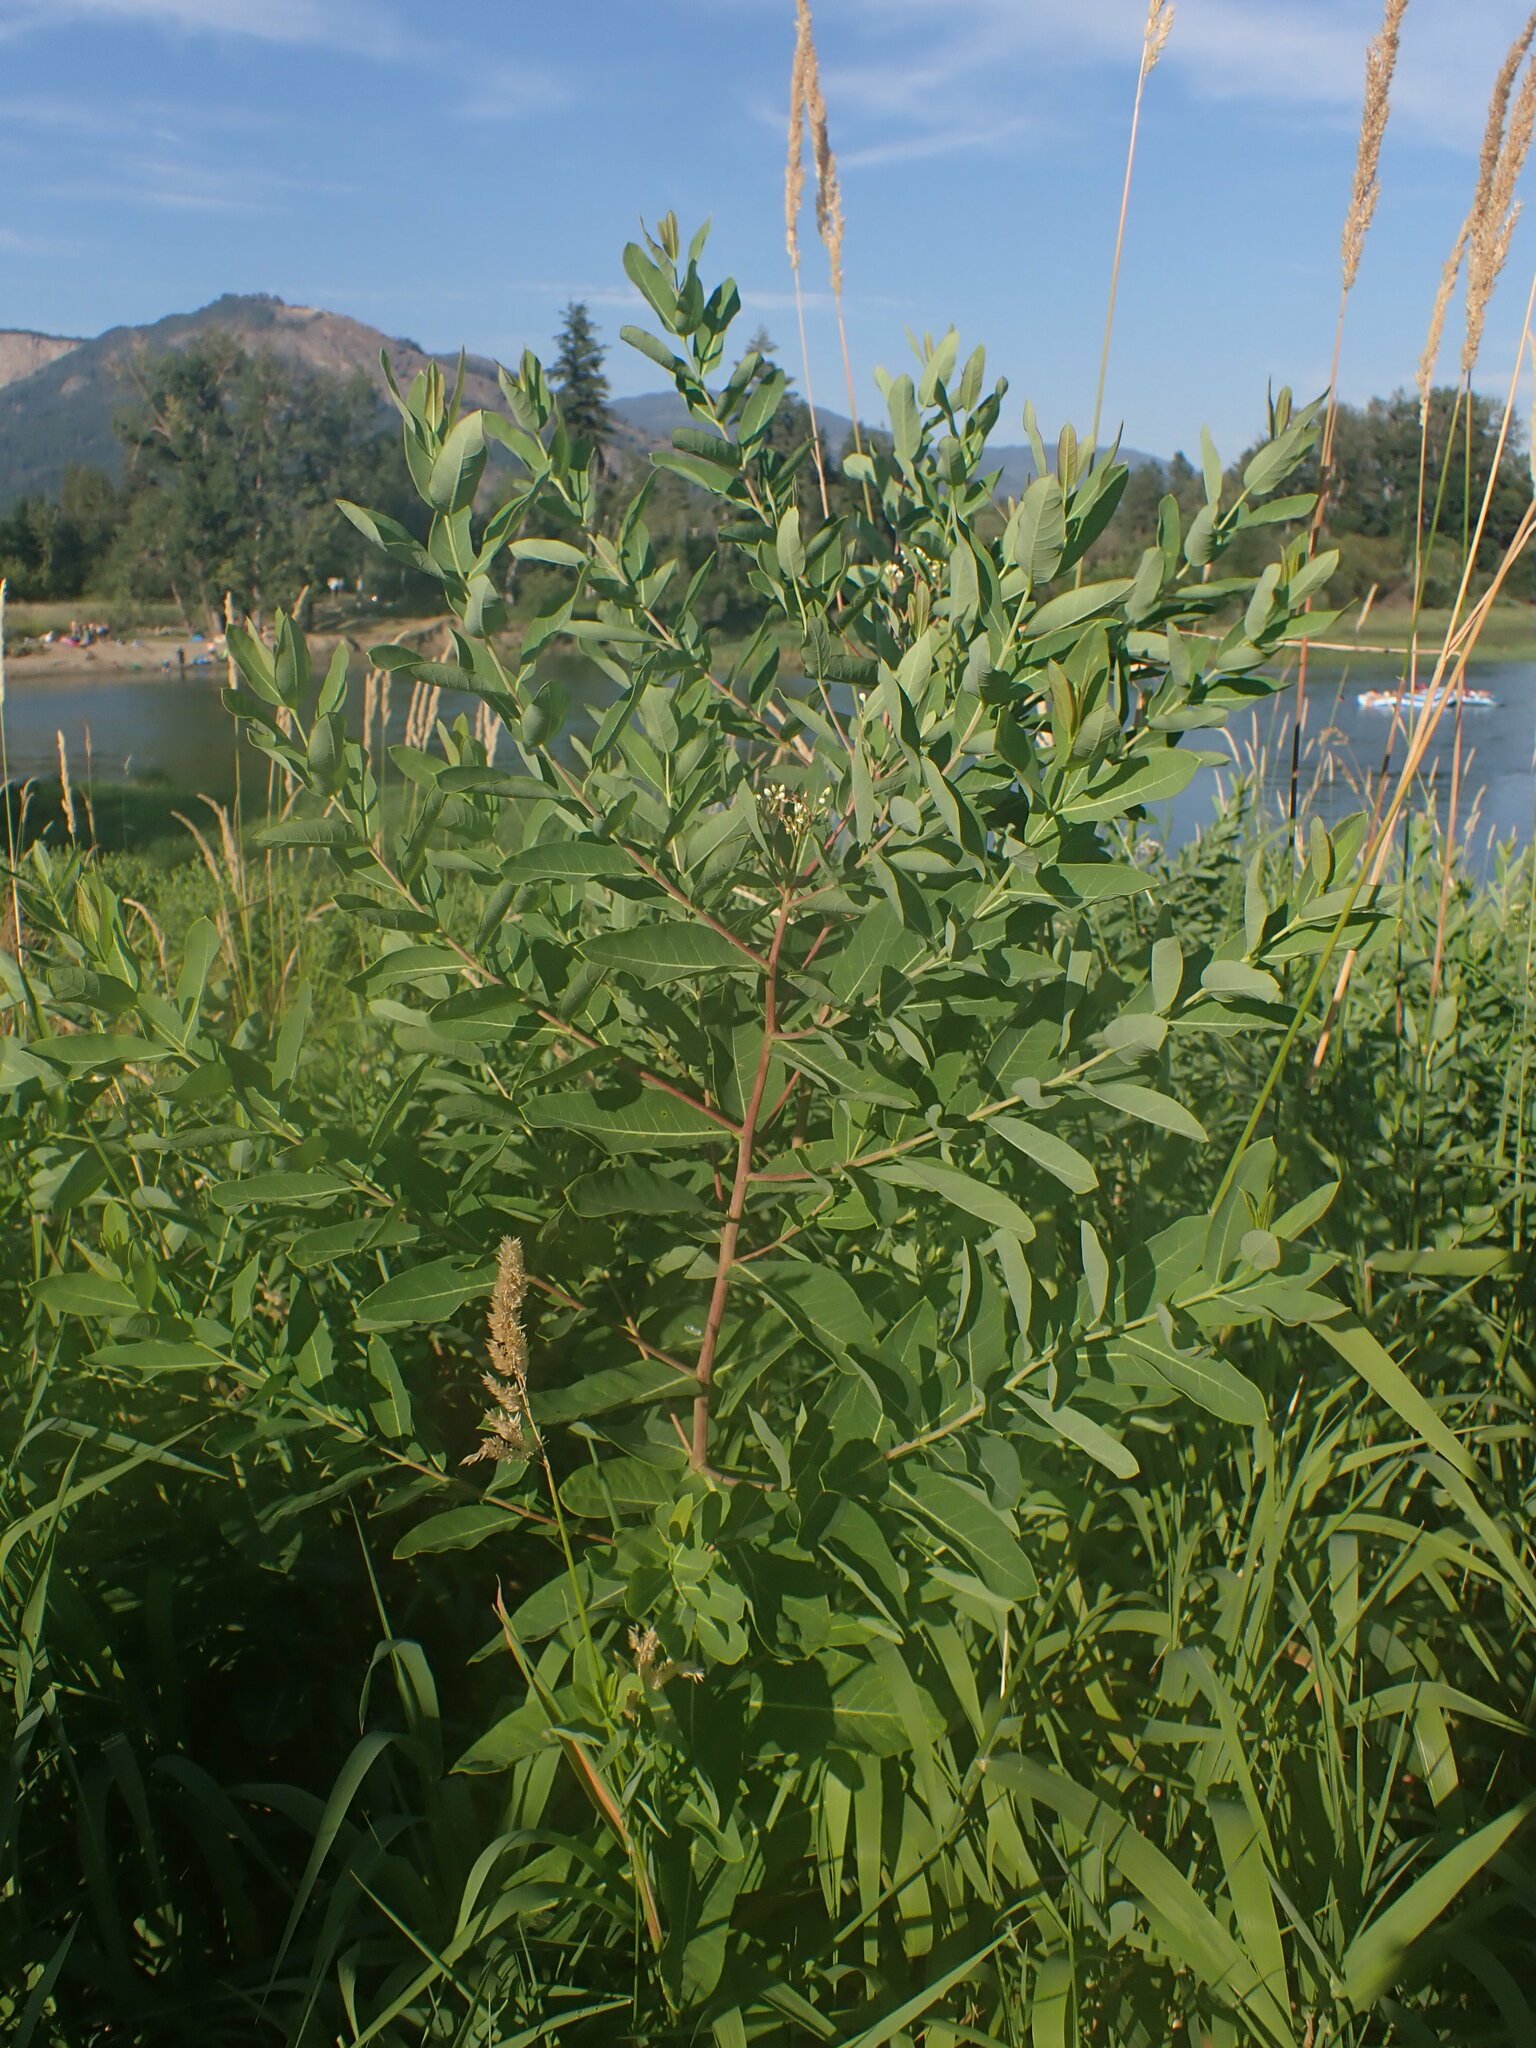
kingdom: Plantae
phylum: Tracheophyta
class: Magnoliopsida
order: Gentianales
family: Apocynaceae
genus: Apocynum
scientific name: Apocynum cannabinum
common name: Hemp dogbane
